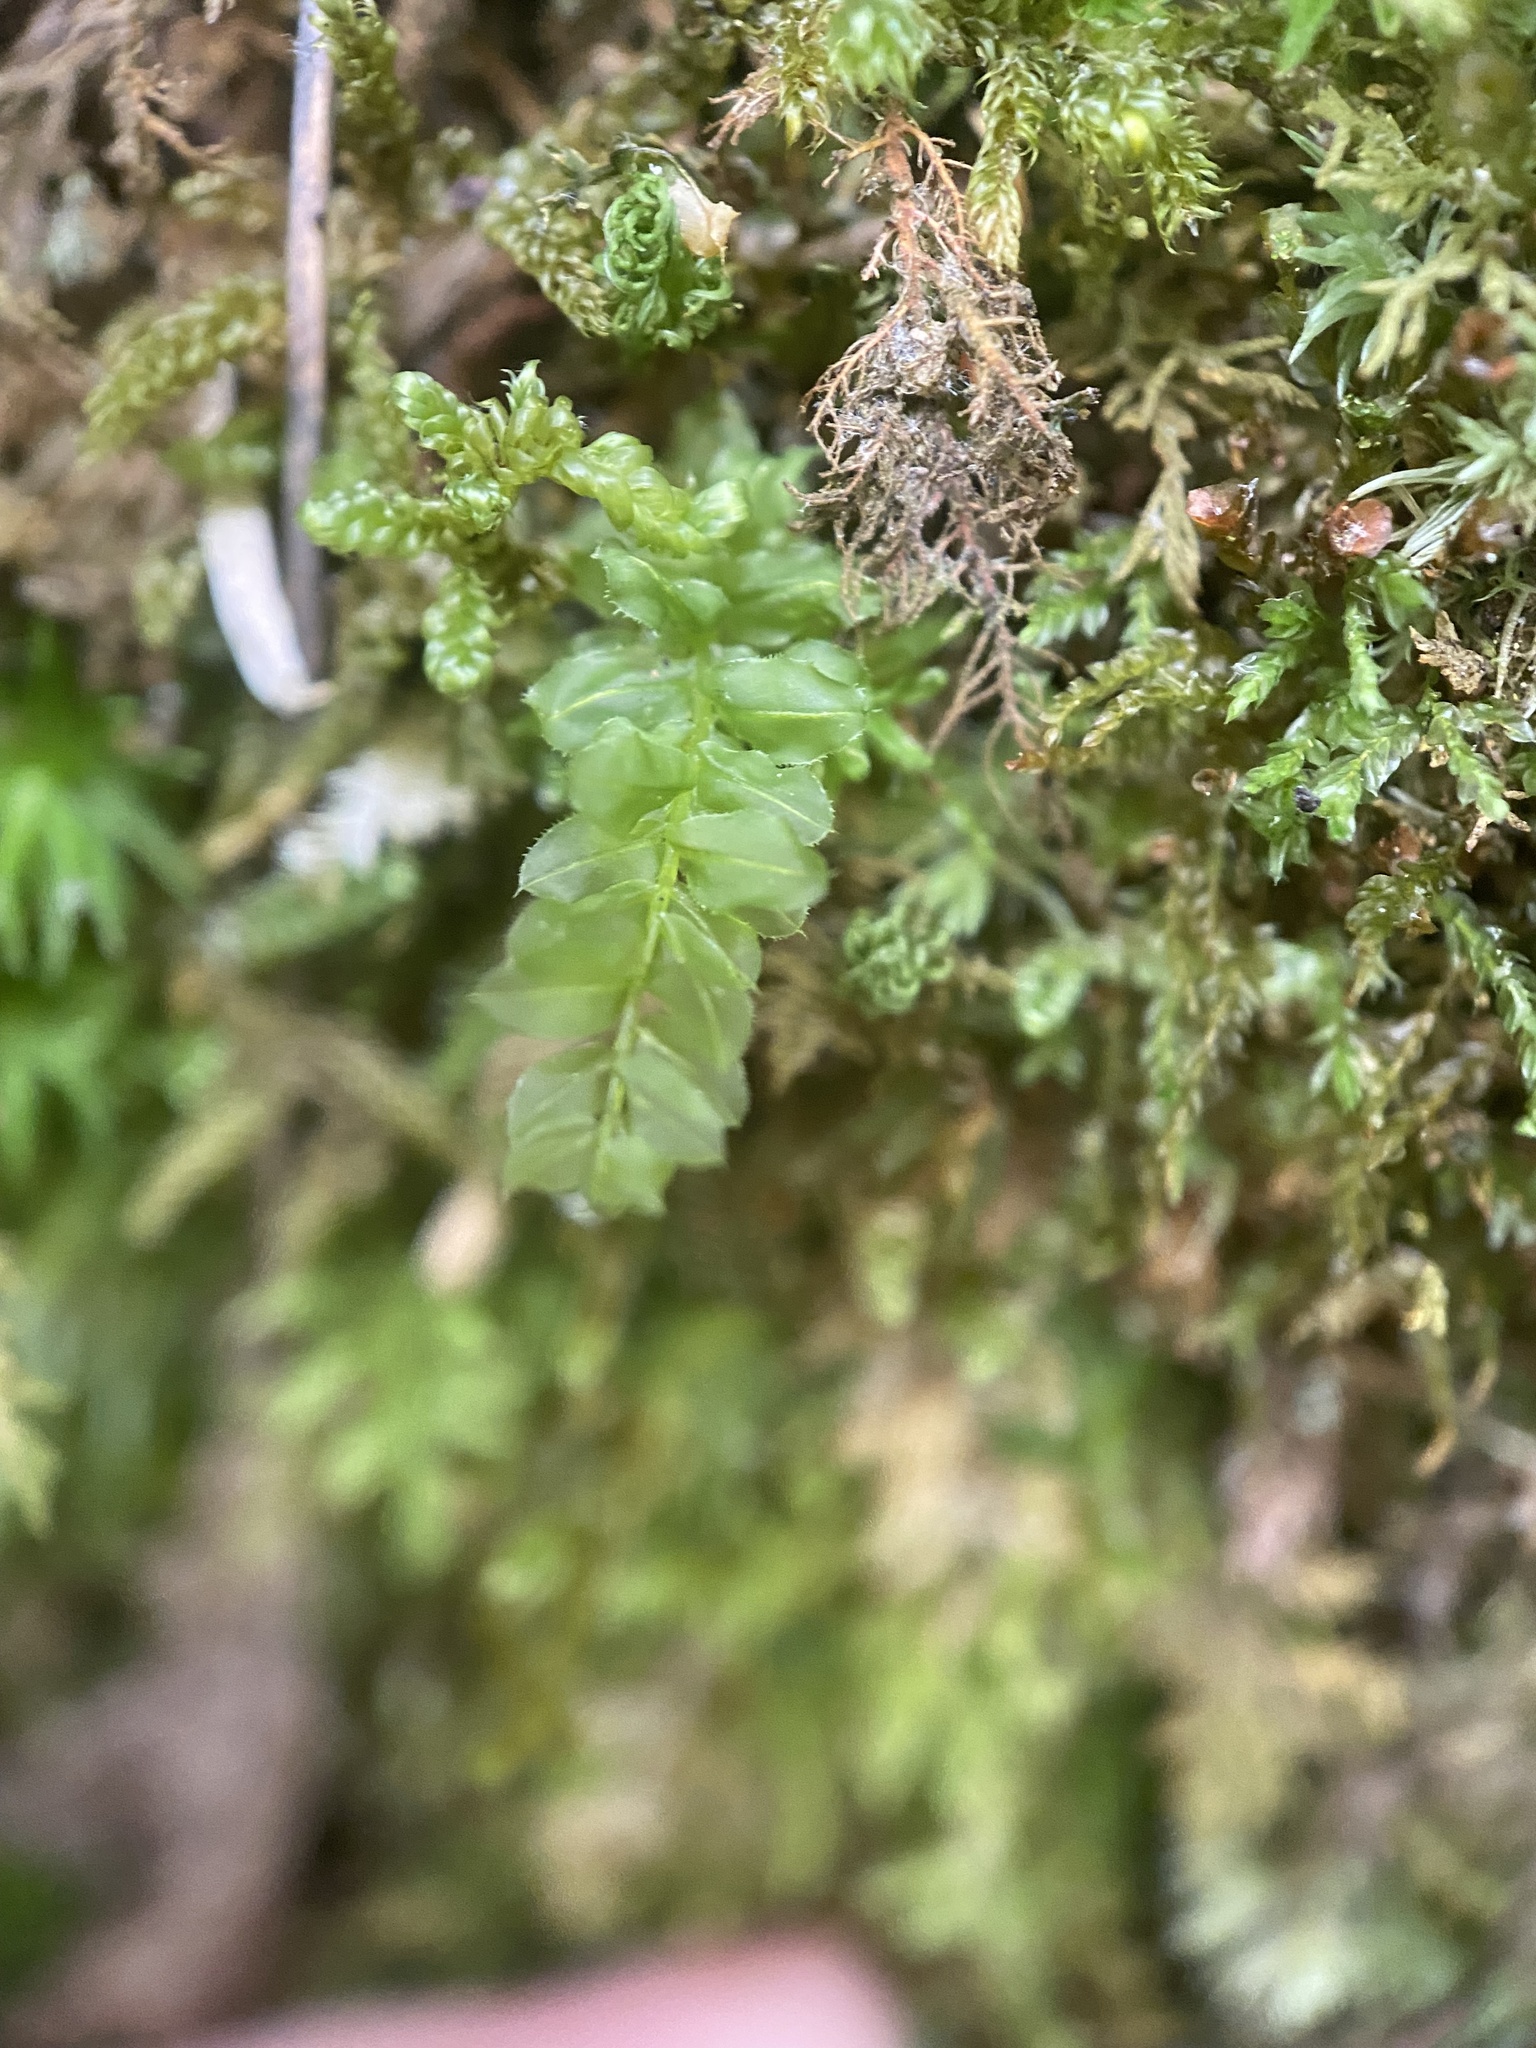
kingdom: Plantae
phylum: Bryophyta
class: Bryopsida
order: Bryales
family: Mniaceae
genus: Plagiomnium
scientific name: Plagiomnium cuspidatum
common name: Woodsy leafy moss
